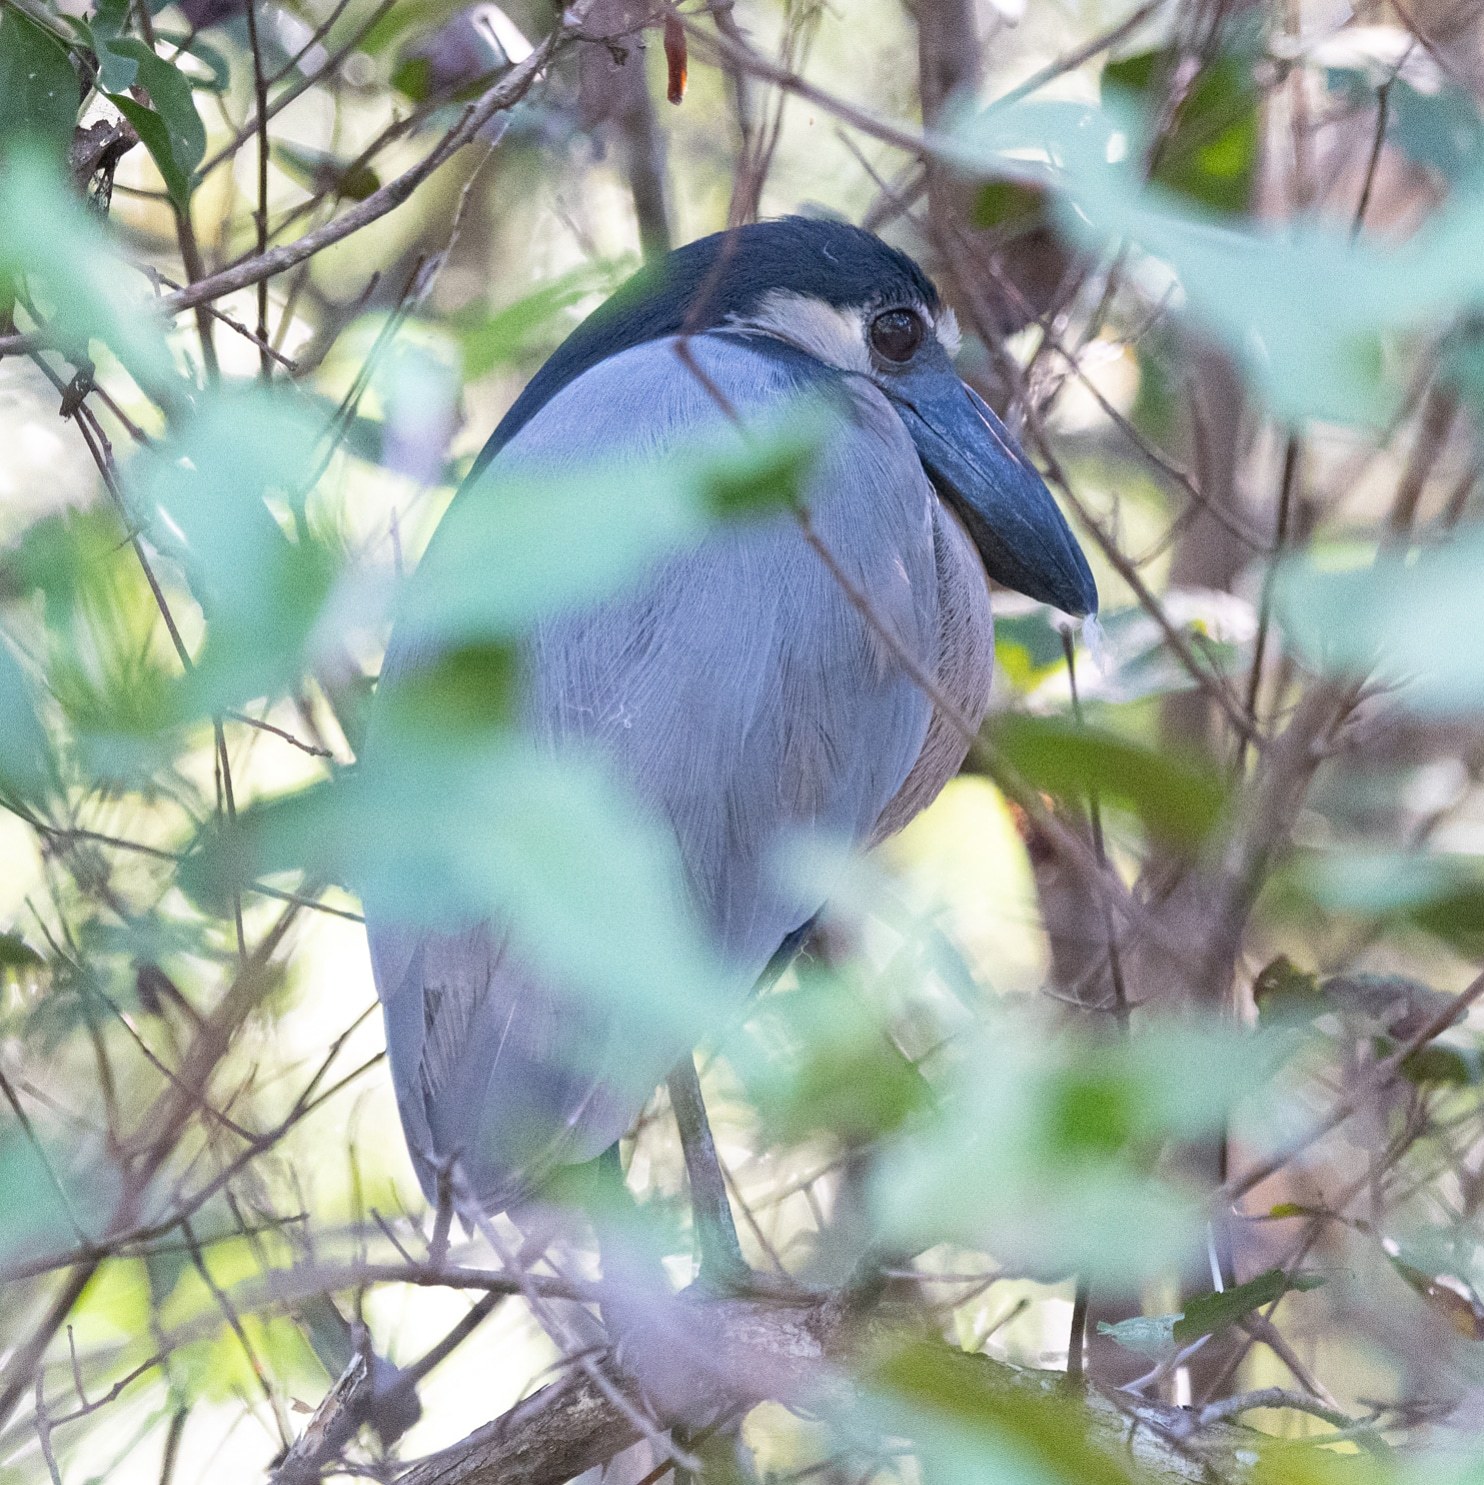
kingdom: Animalia
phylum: Chordata
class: Aves
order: Pelecaniformes
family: Ardeidae
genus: Cochlearius
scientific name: Cochlearius cochlearius
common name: Boat-billed heron
